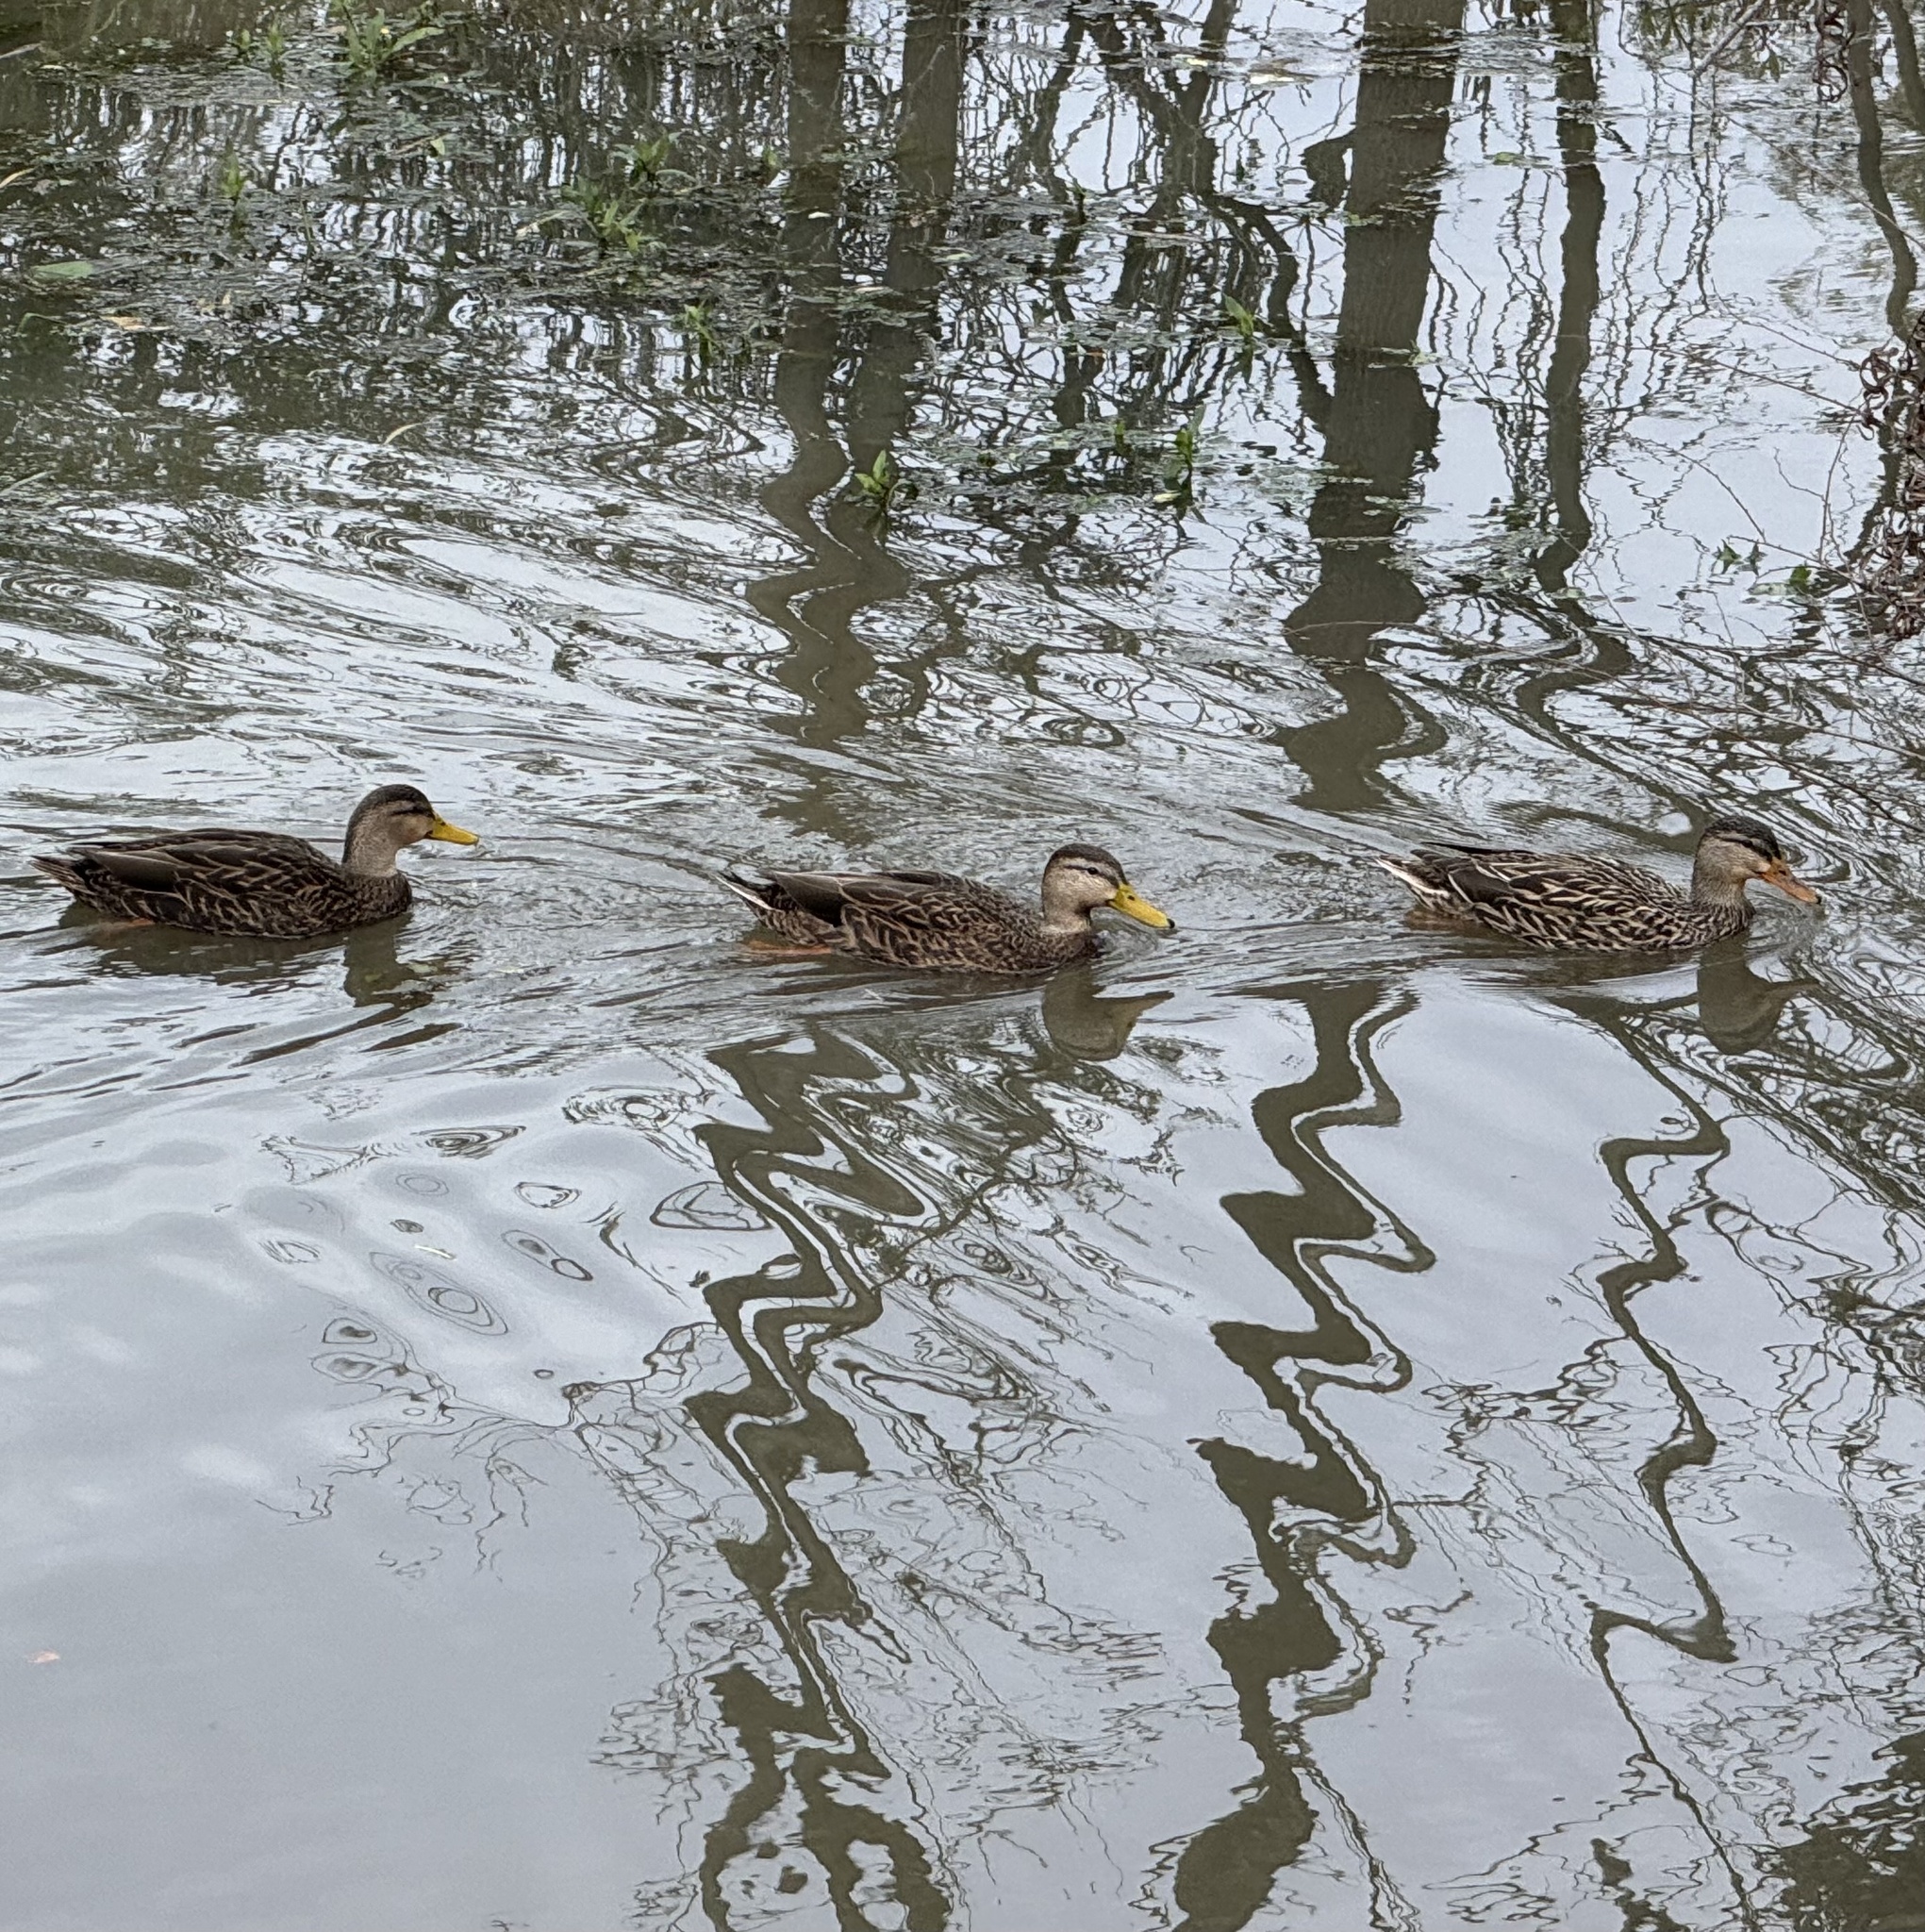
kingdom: Animalia
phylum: Chordata
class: Aves
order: Anseriformes
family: Anatidae
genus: Anas
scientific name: Anas fulvigula
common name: Mottled duck
